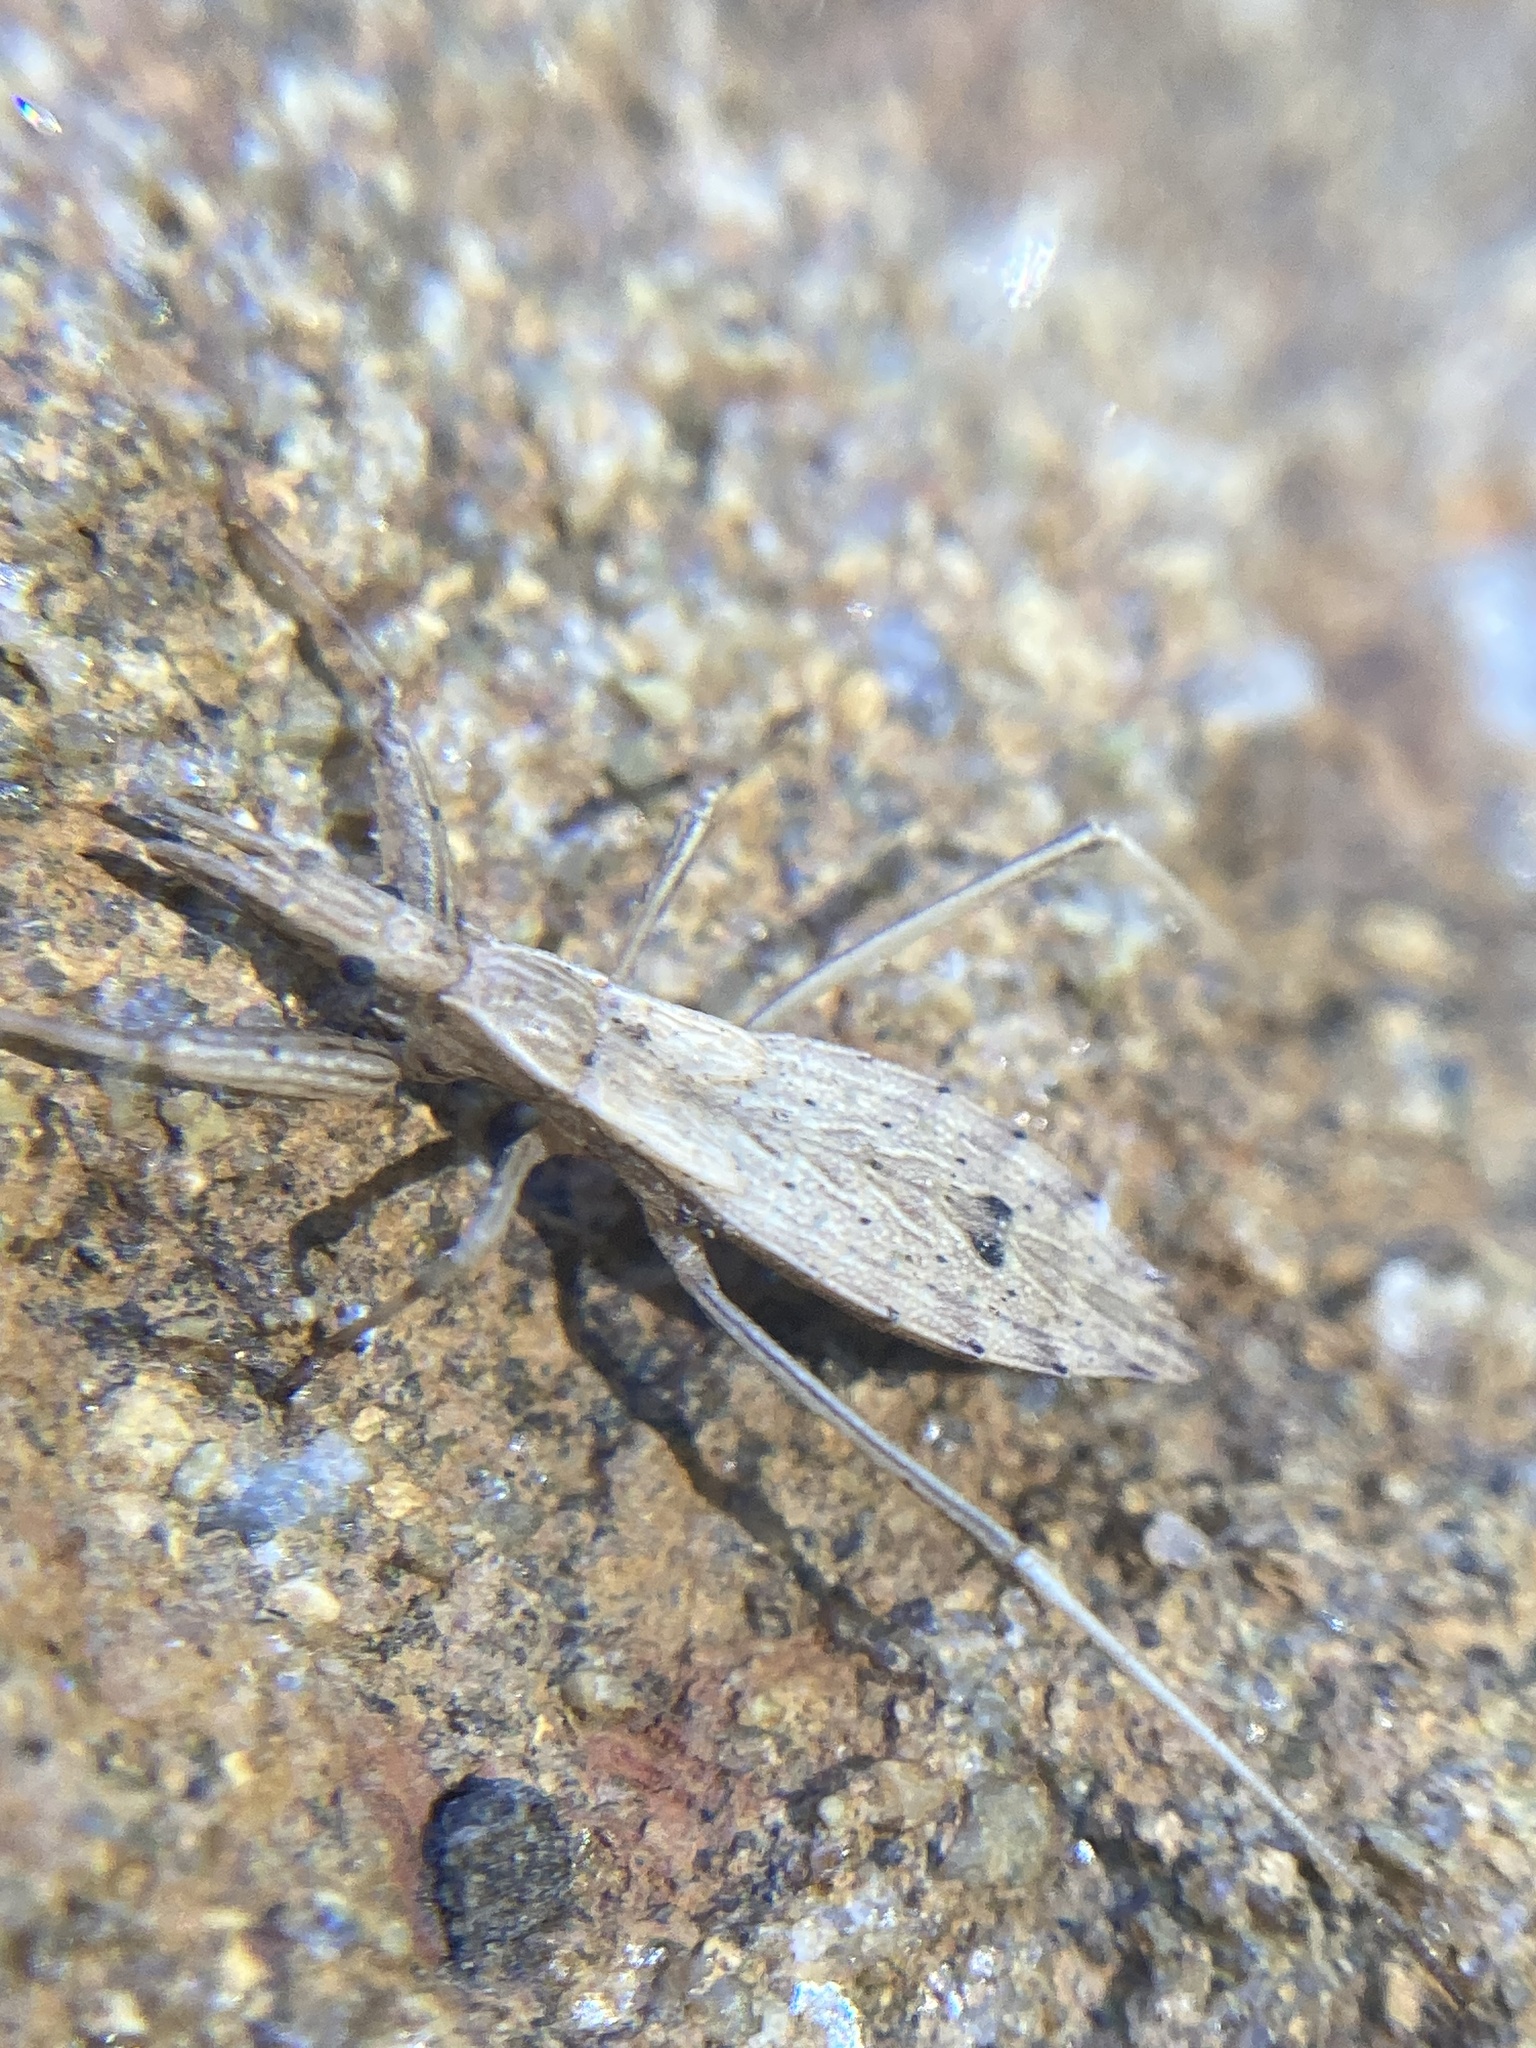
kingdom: Animalia
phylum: Arthropoda
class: Insecta
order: Hemiptera
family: Reduviidae
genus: Sastrapada
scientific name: Sastrapada australica
